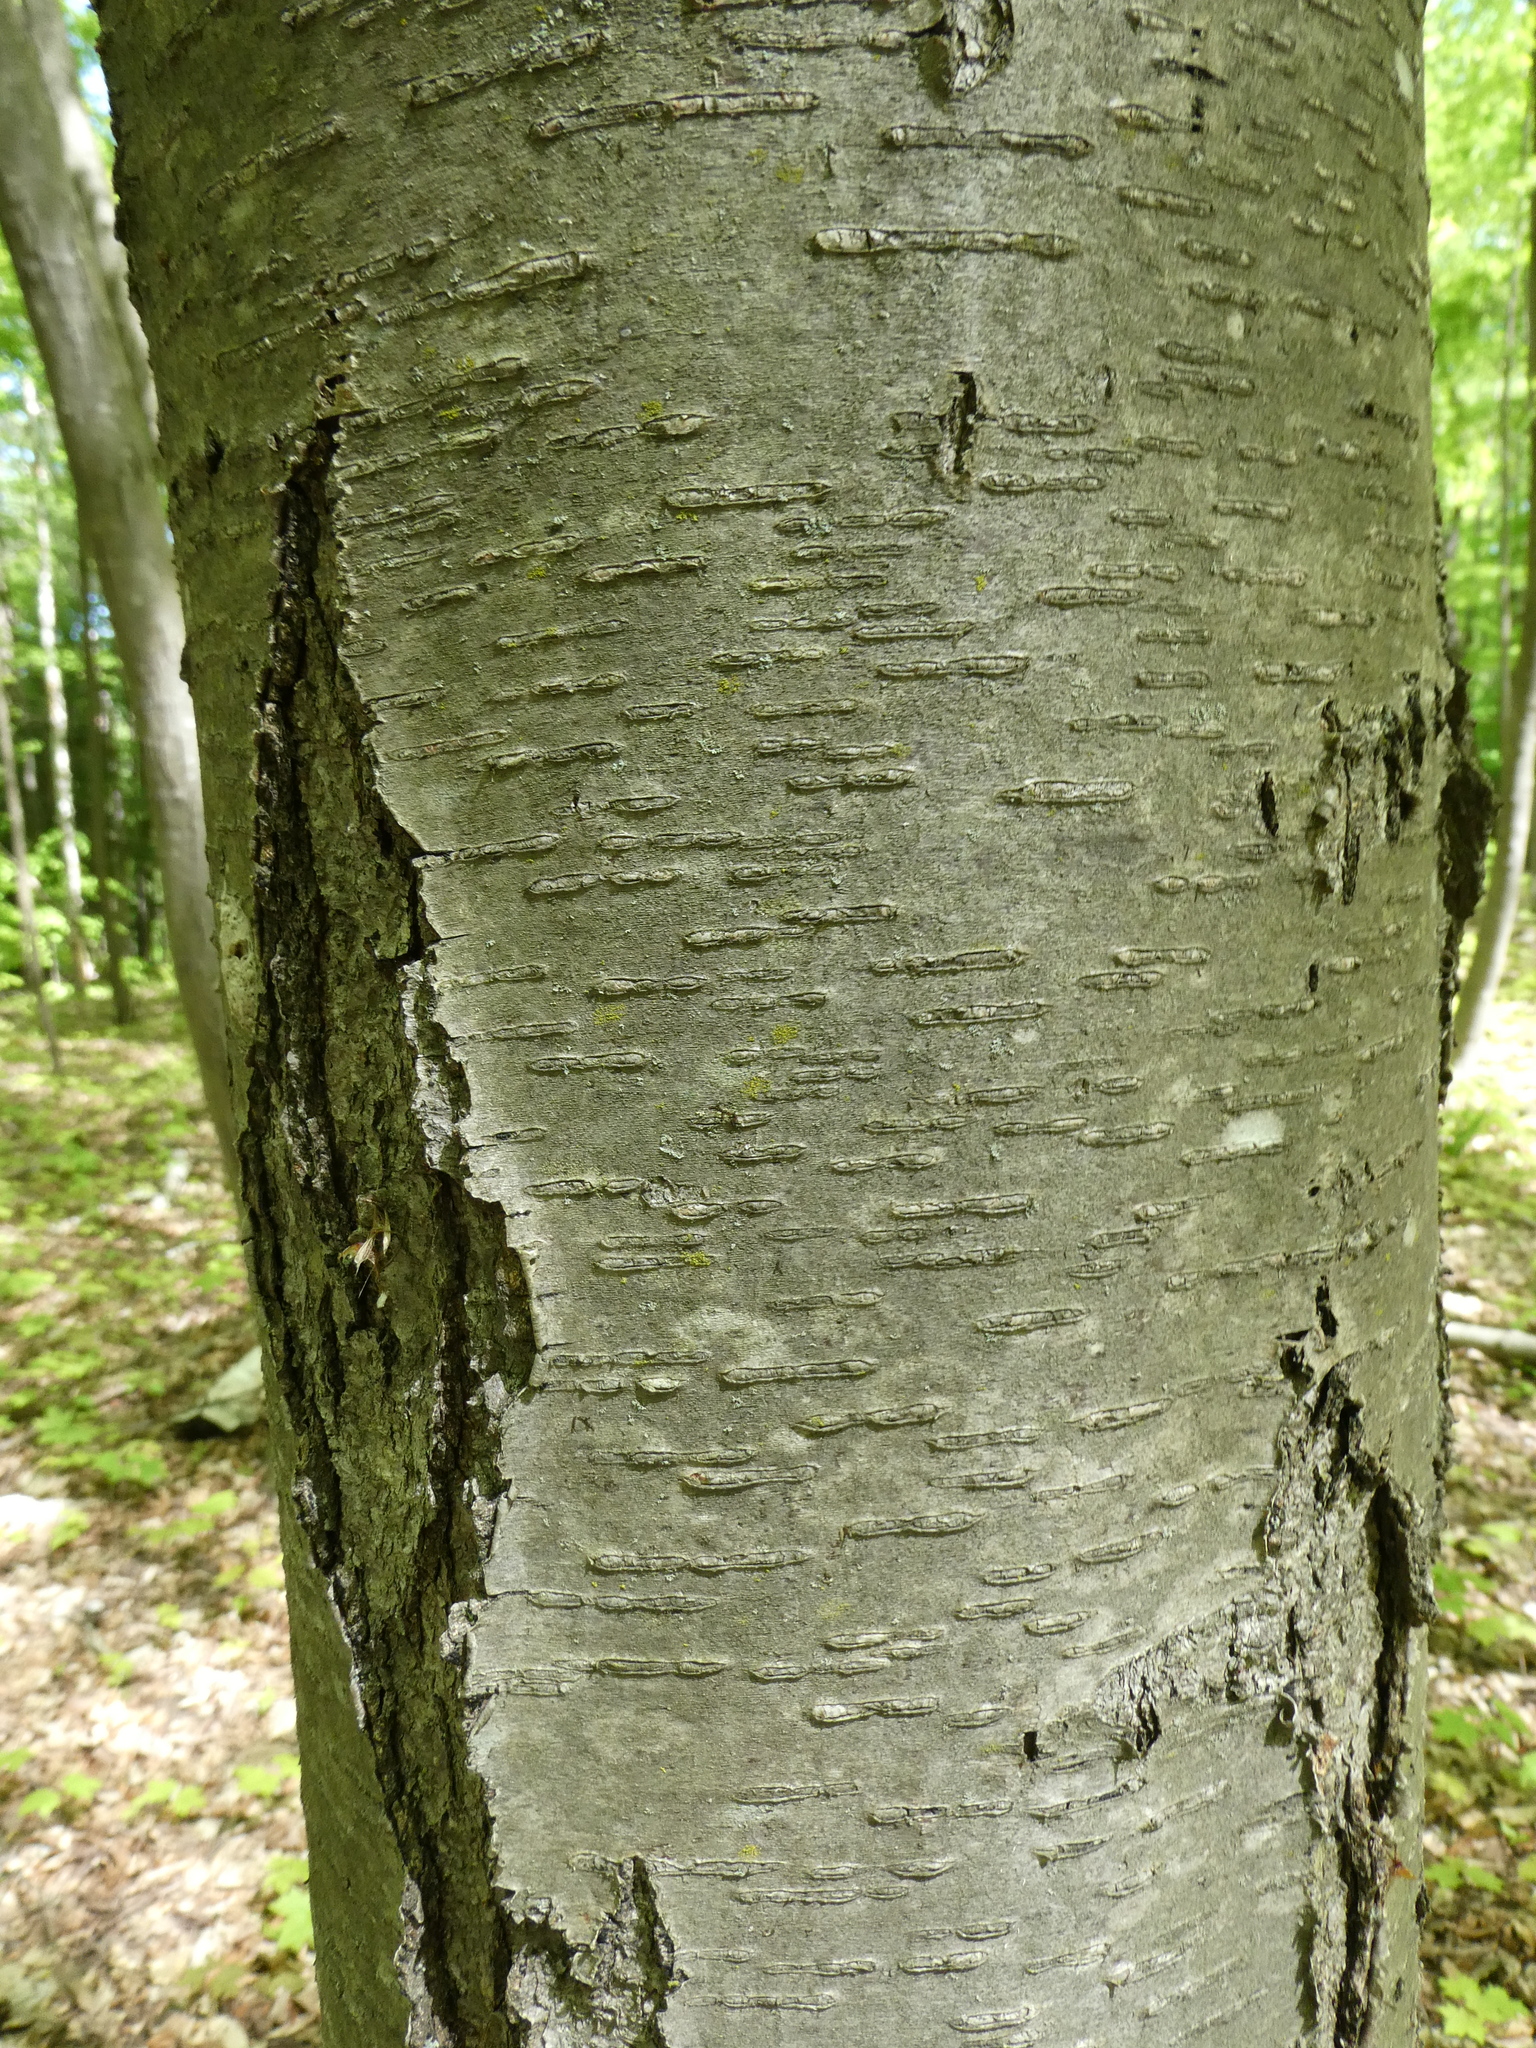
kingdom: Plantae
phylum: Tracheophyta
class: Magnoliopsida
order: Fagales
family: Betulaceae
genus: Betula
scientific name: Betula lenta
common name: Black birch
